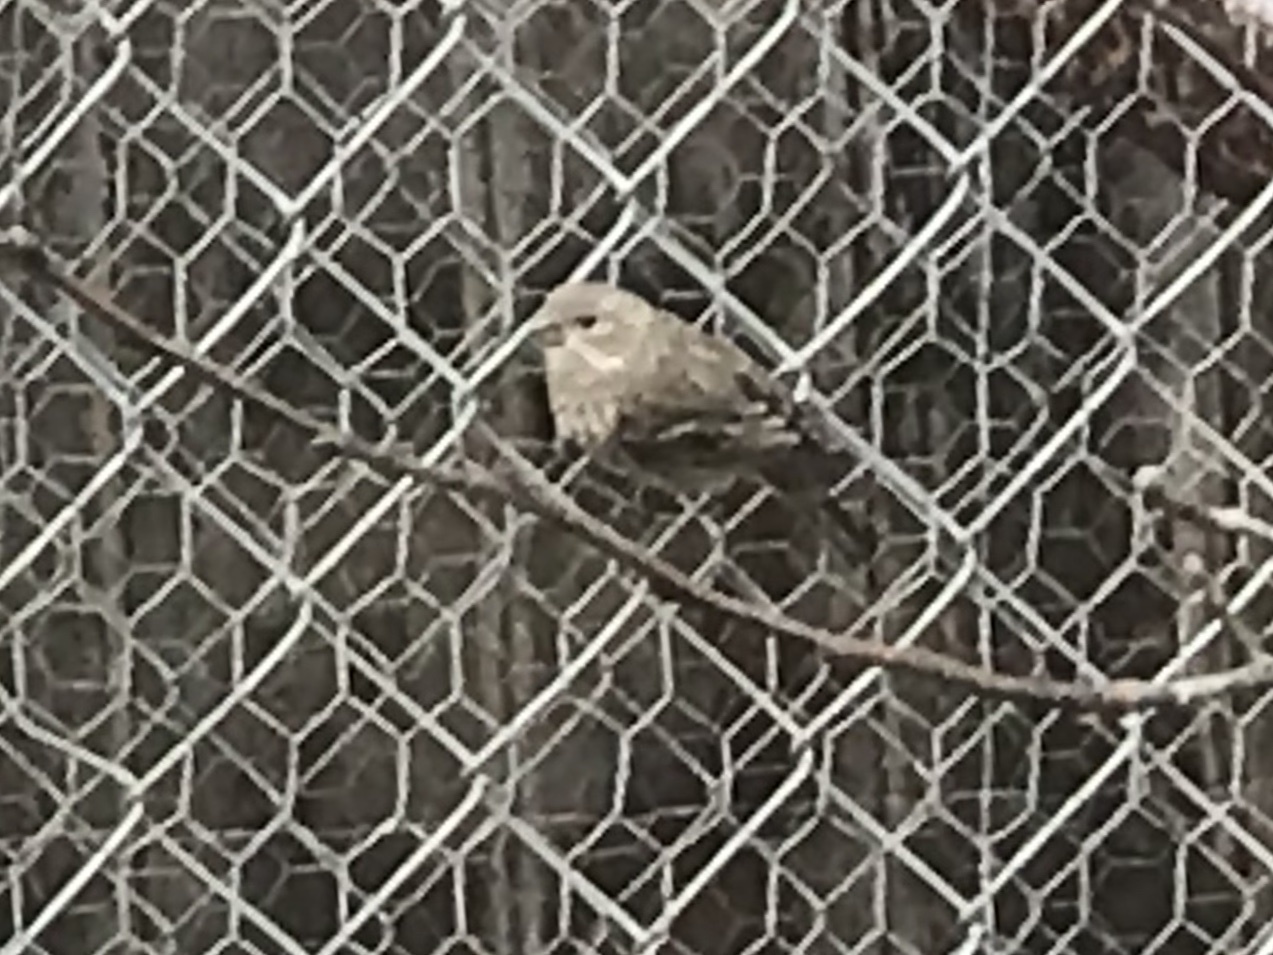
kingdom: Animalia
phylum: Chordata
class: Aves
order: Passeriformes
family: Fringillidae
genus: Haemorhous
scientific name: Haemorhous mexicanus
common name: House finch
